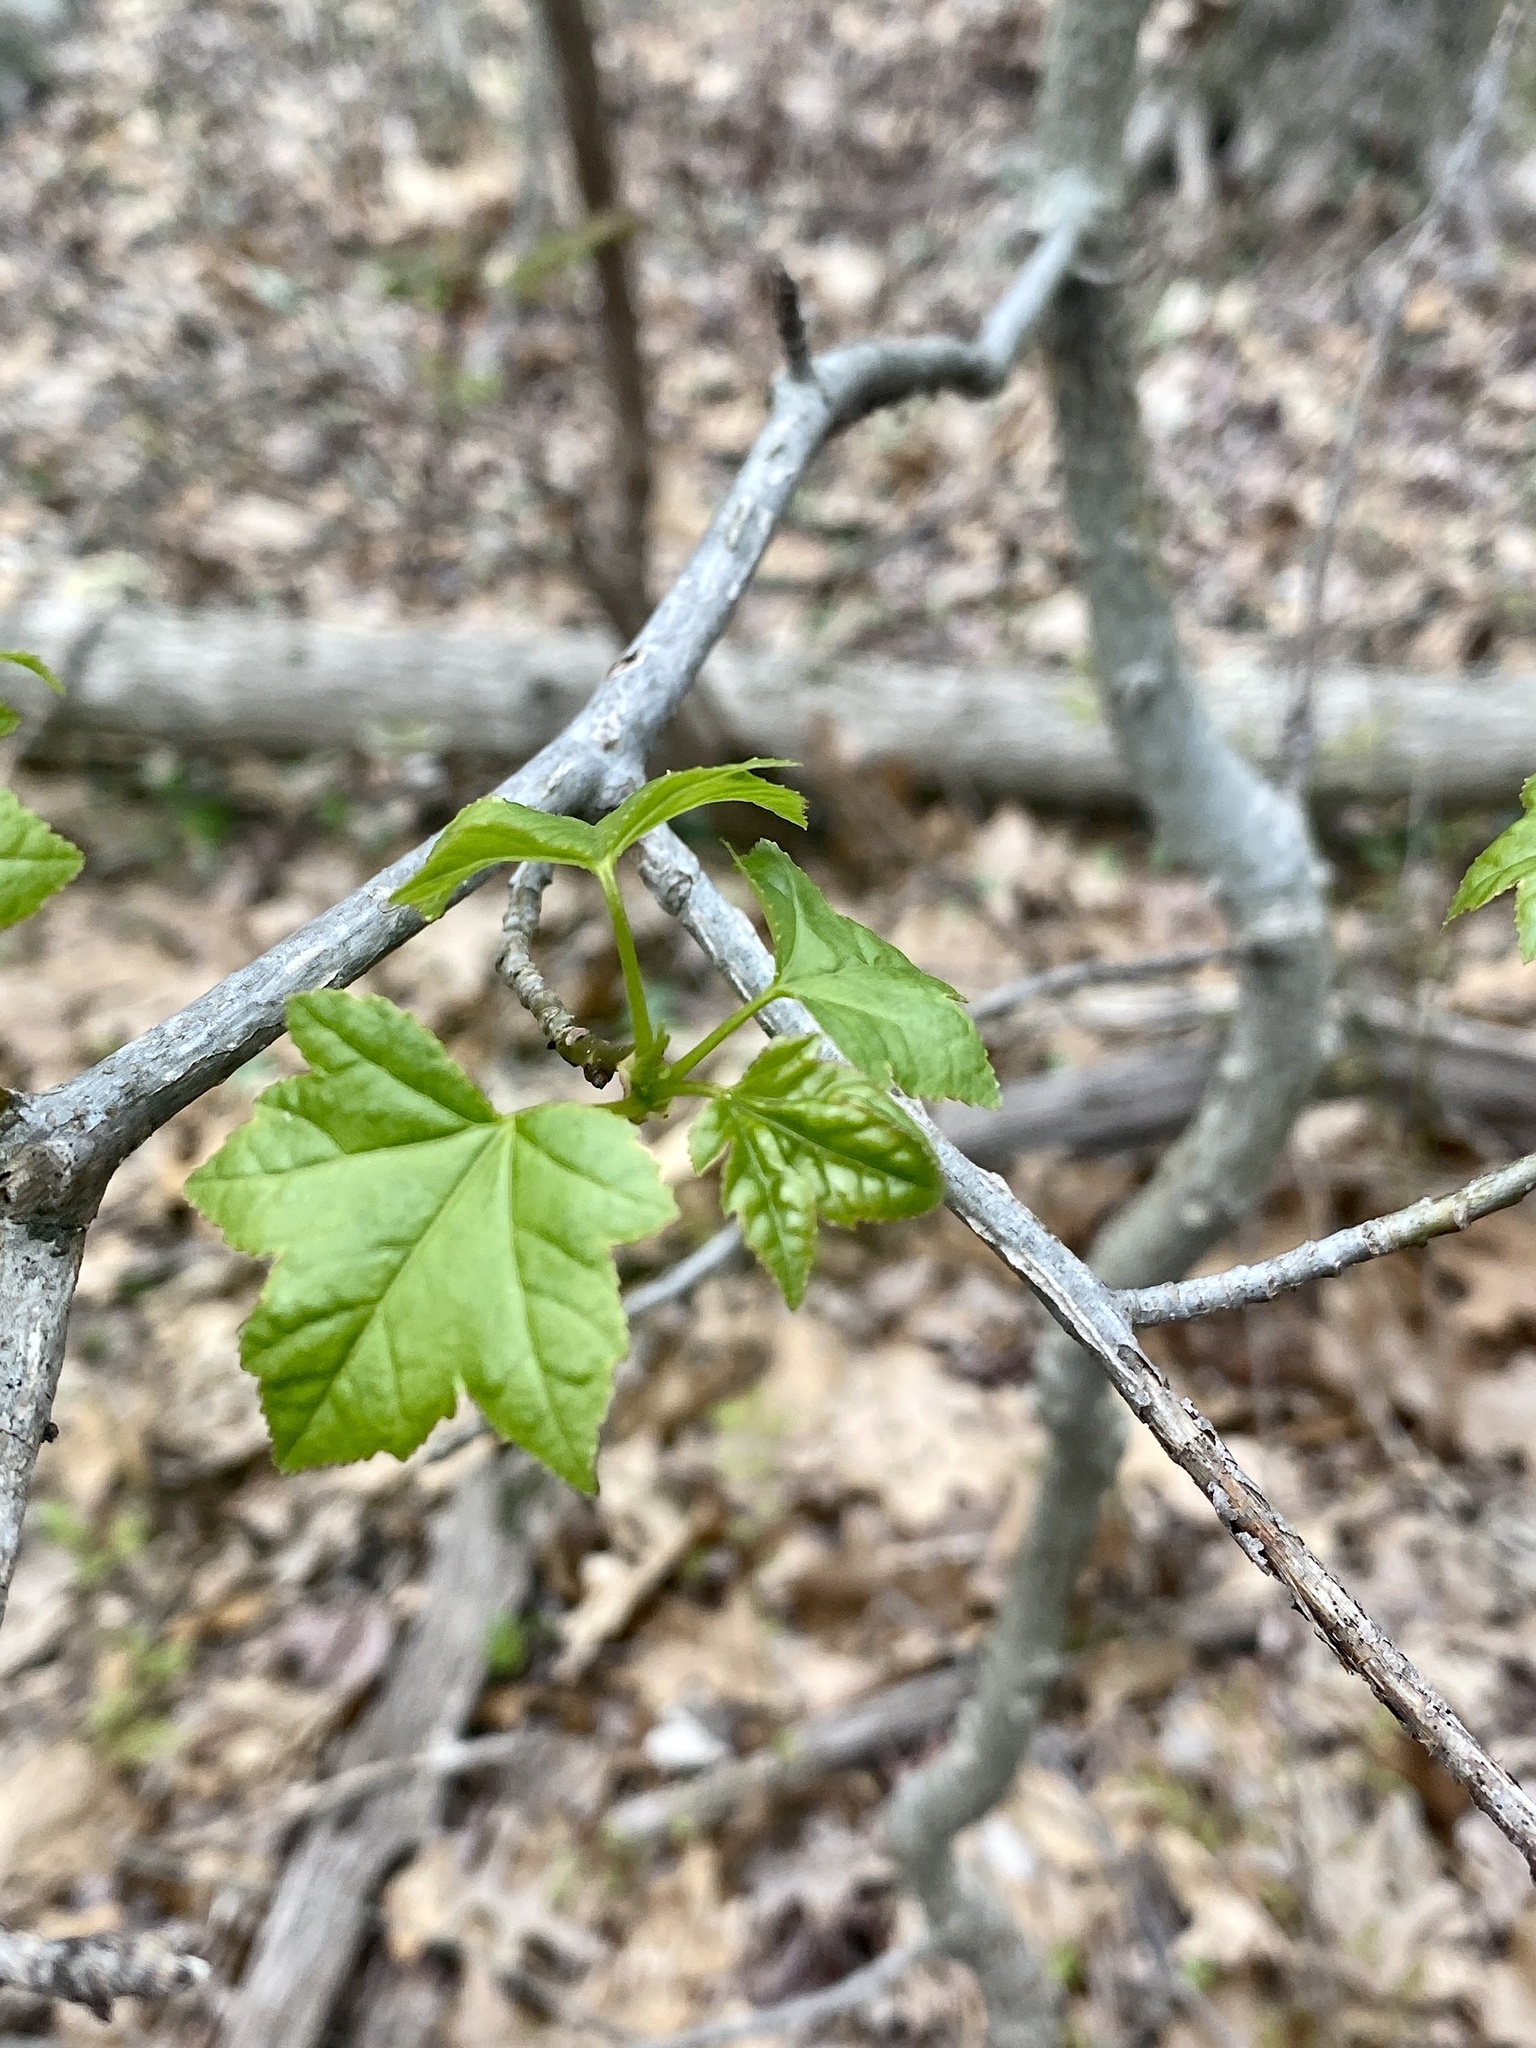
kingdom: Plantae
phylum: Tracheophyta
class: Magnoliopsida
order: Saxifragales
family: Altingiaceae
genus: Liquidambar
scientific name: Liquidambar styraciflua
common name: Sweet gum
